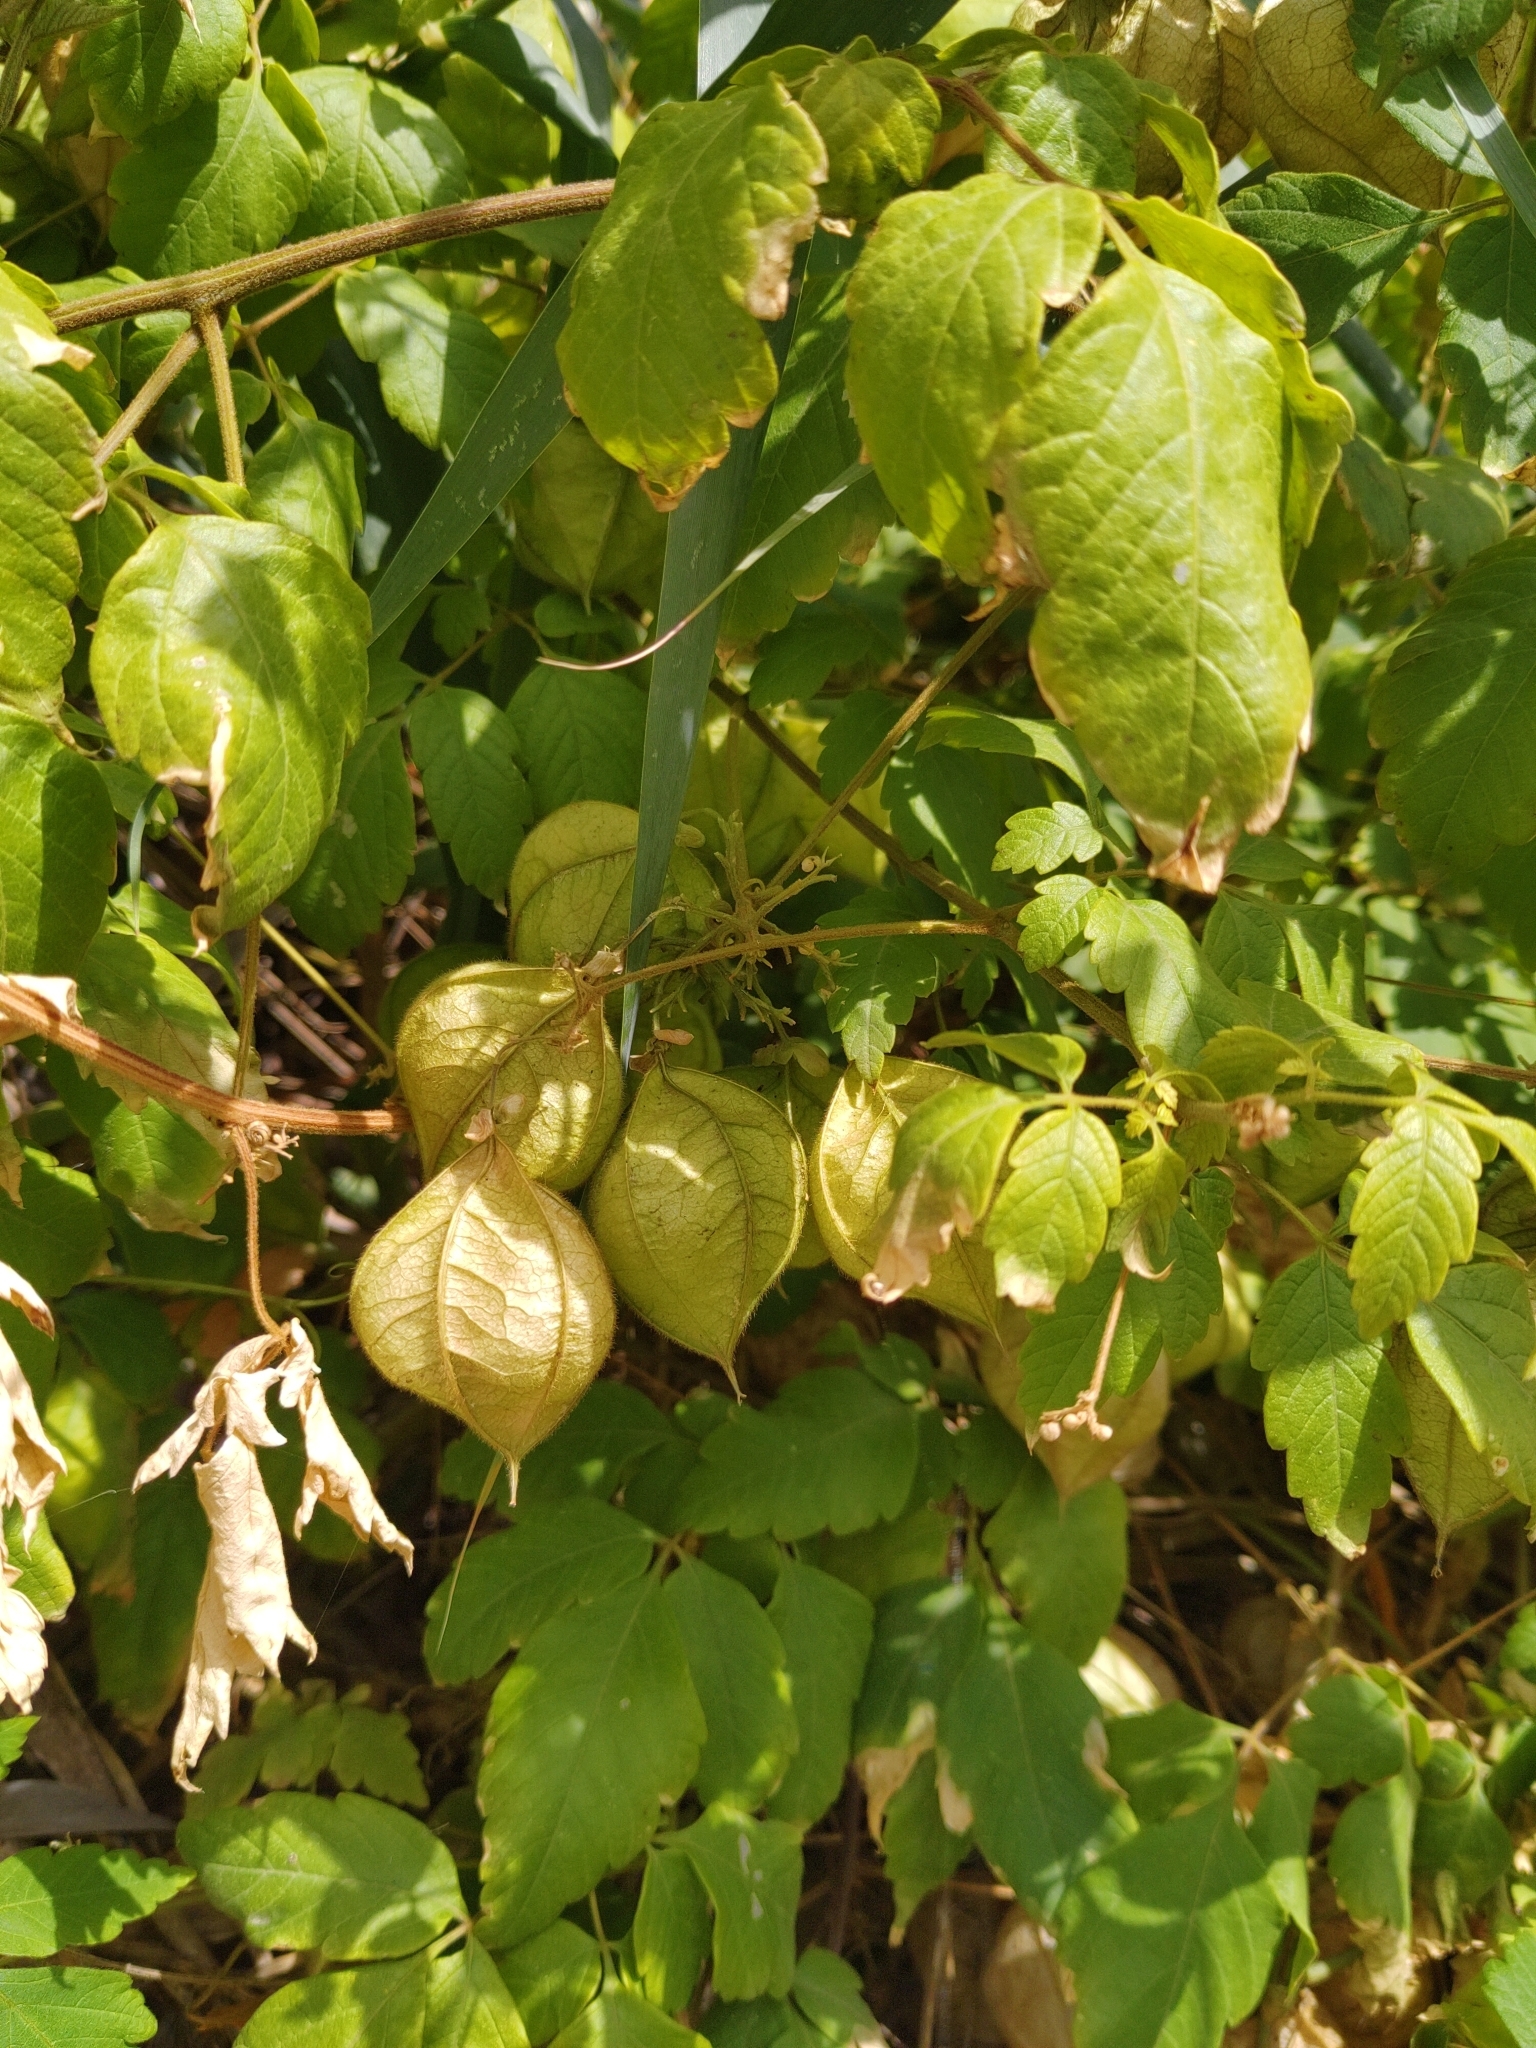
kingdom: Plantae
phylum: Tracheophyta
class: Magnoliopsida
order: Sapindales
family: Sapindaceae
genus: Cardiospermum
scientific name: Cardiospermum grandiflorum
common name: Balloon vine
